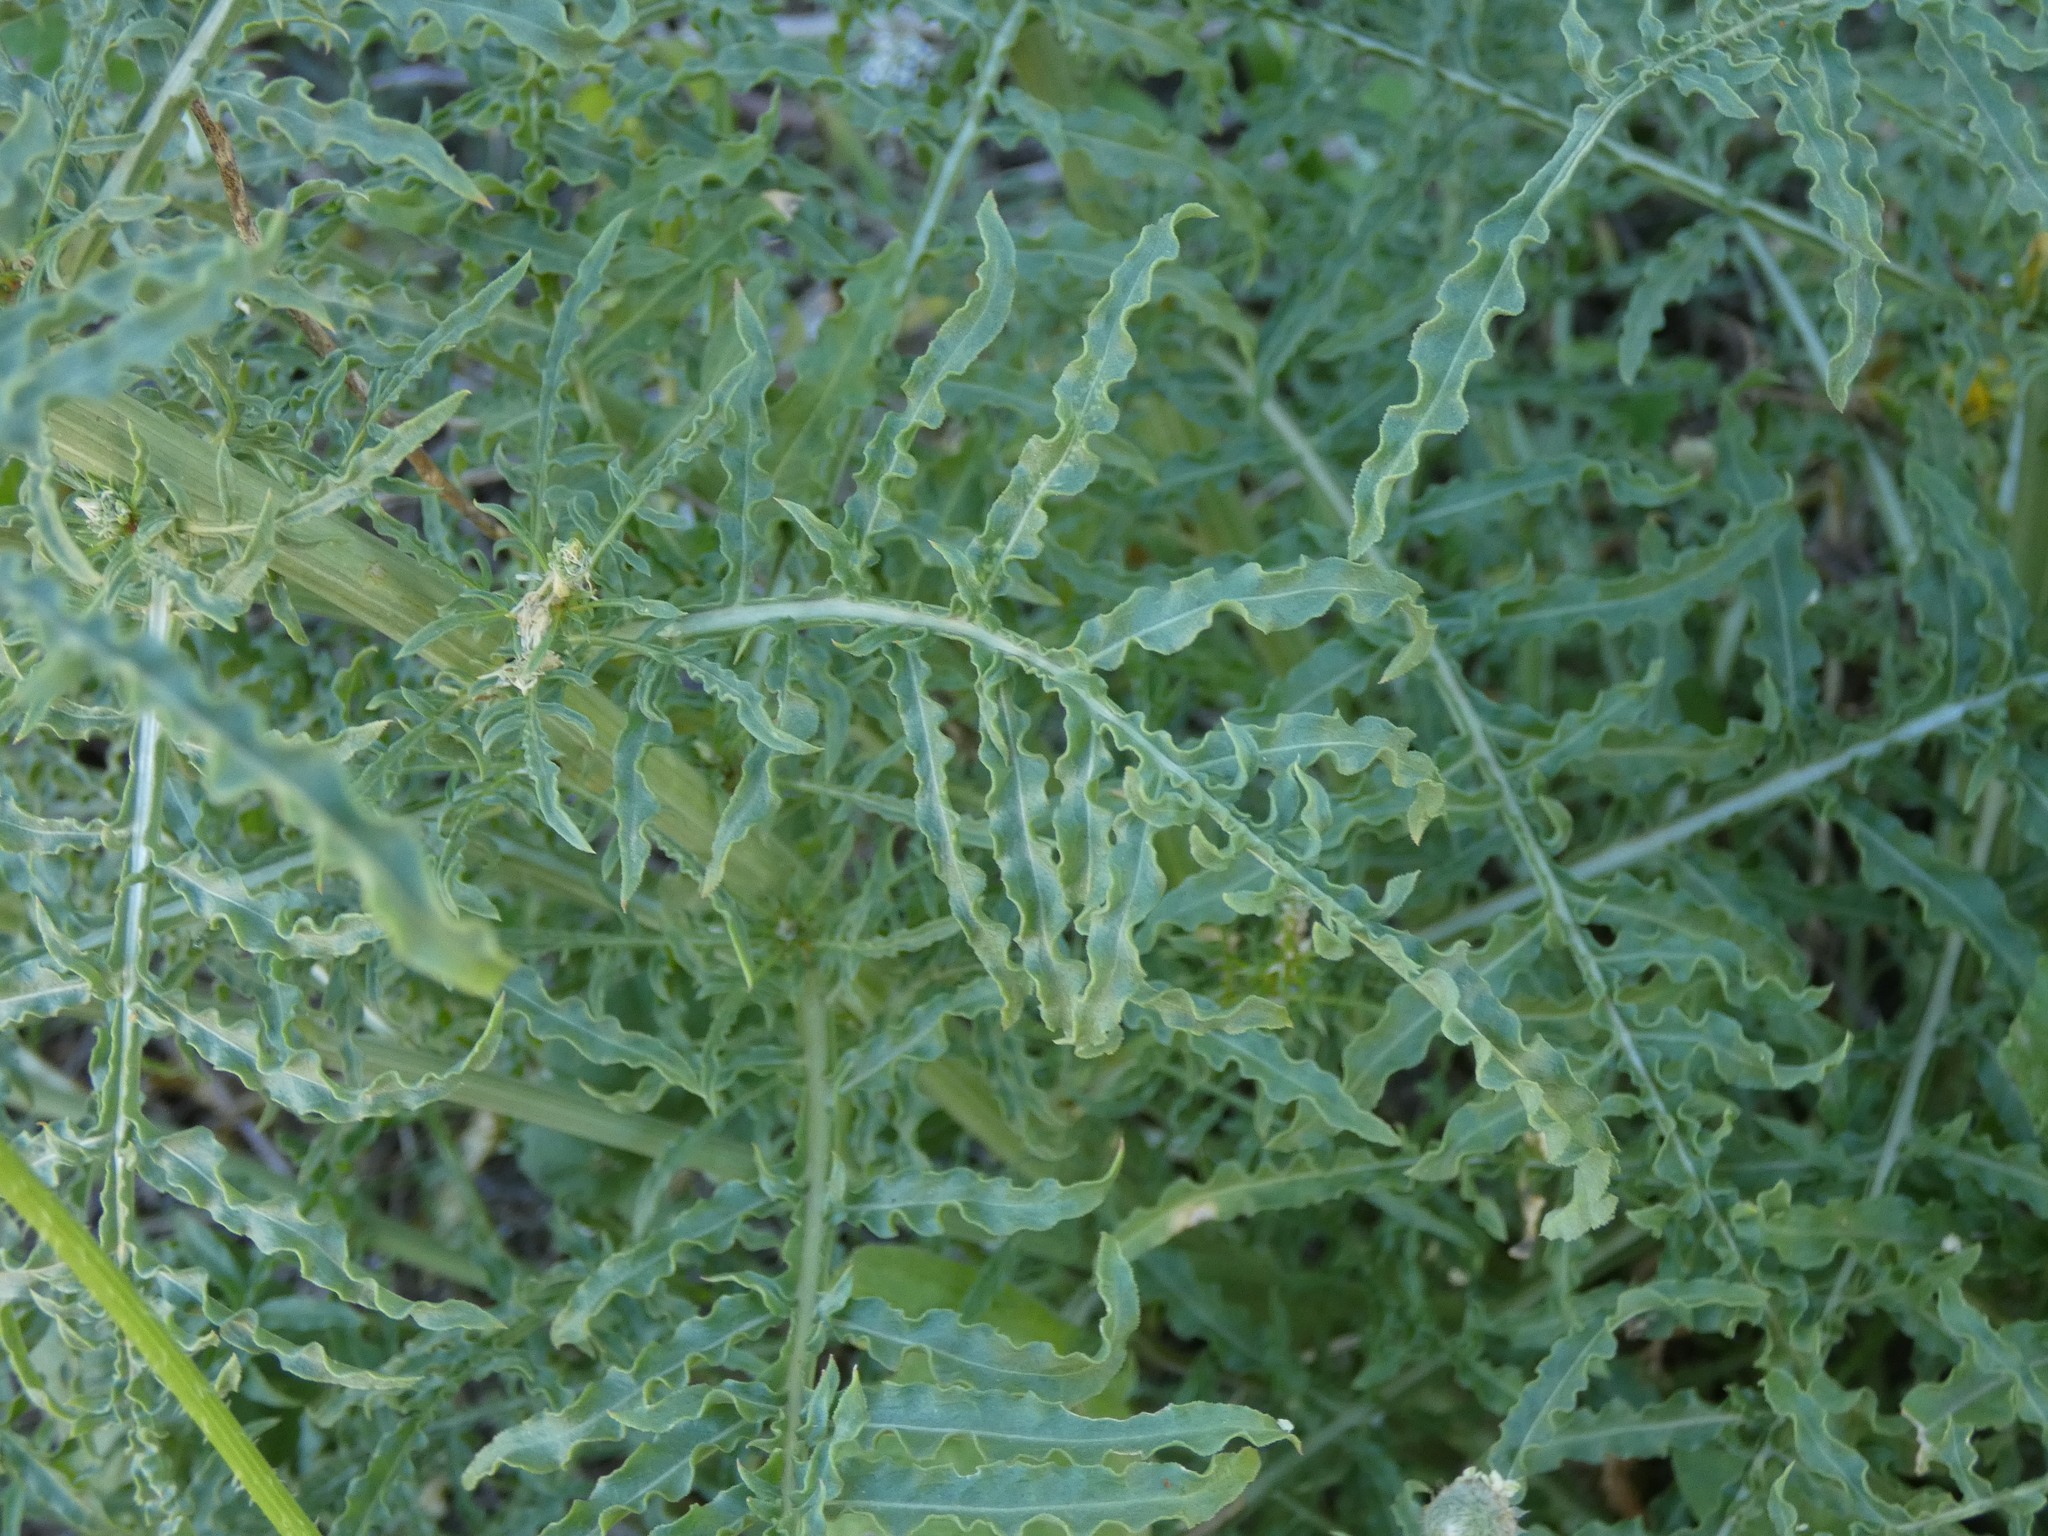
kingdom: Plantae
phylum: Tracheophyta
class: Magnoliopsida
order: Brassicales
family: Resedaceae
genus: Reseda
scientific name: Reseda alba
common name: White mignonette
